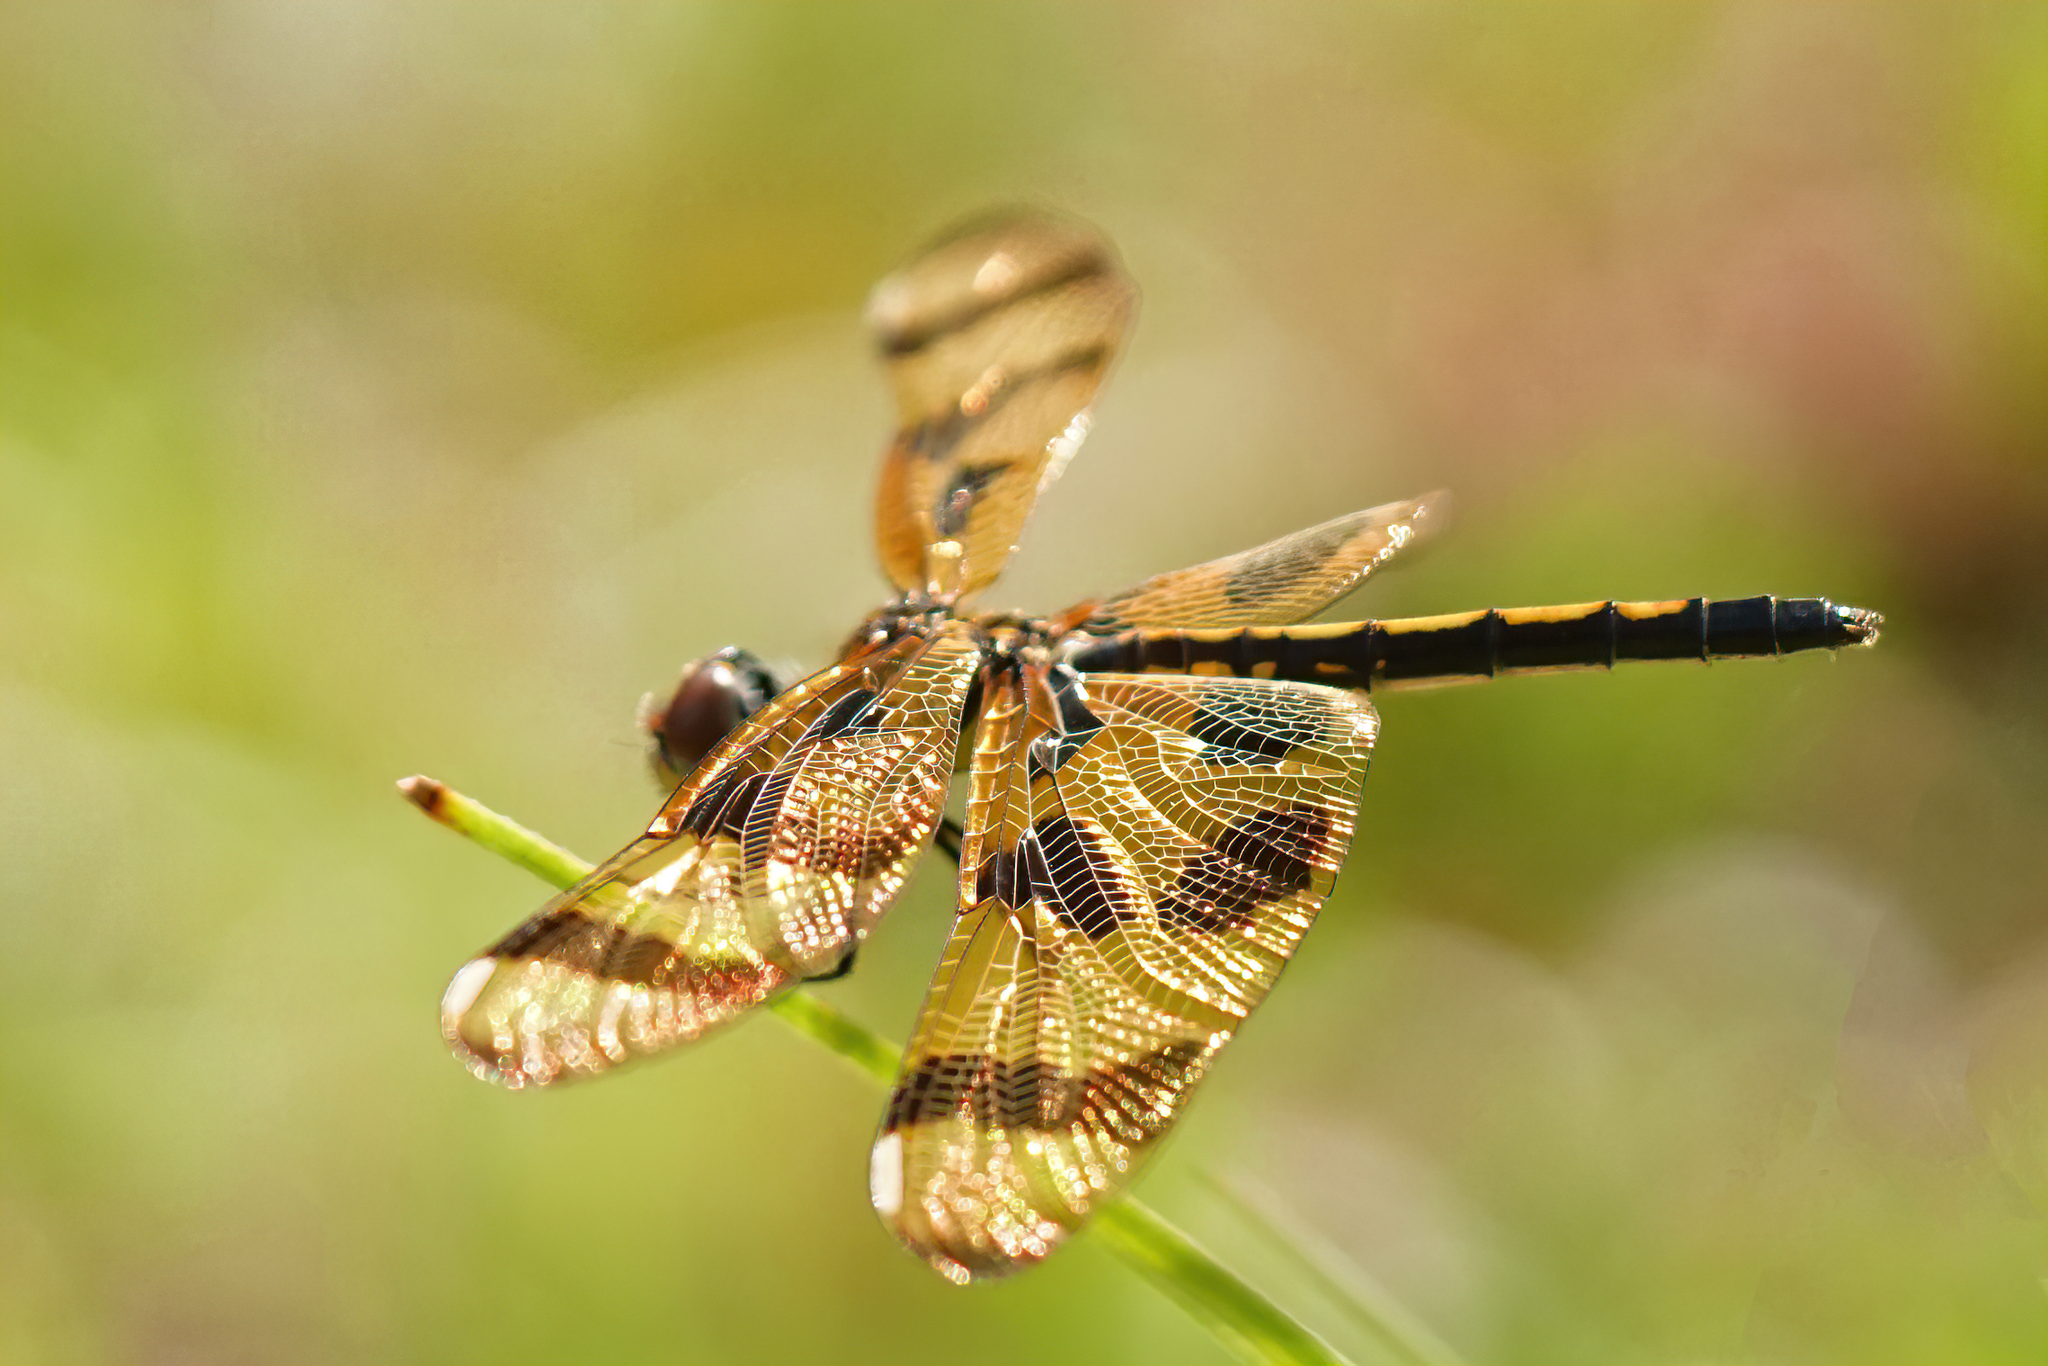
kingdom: Animalia
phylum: Arthropoda
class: Insecta
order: Odonata
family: Libellulidae
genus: Celithemis
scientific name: Celithemis eponina
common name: Halloween pennant
